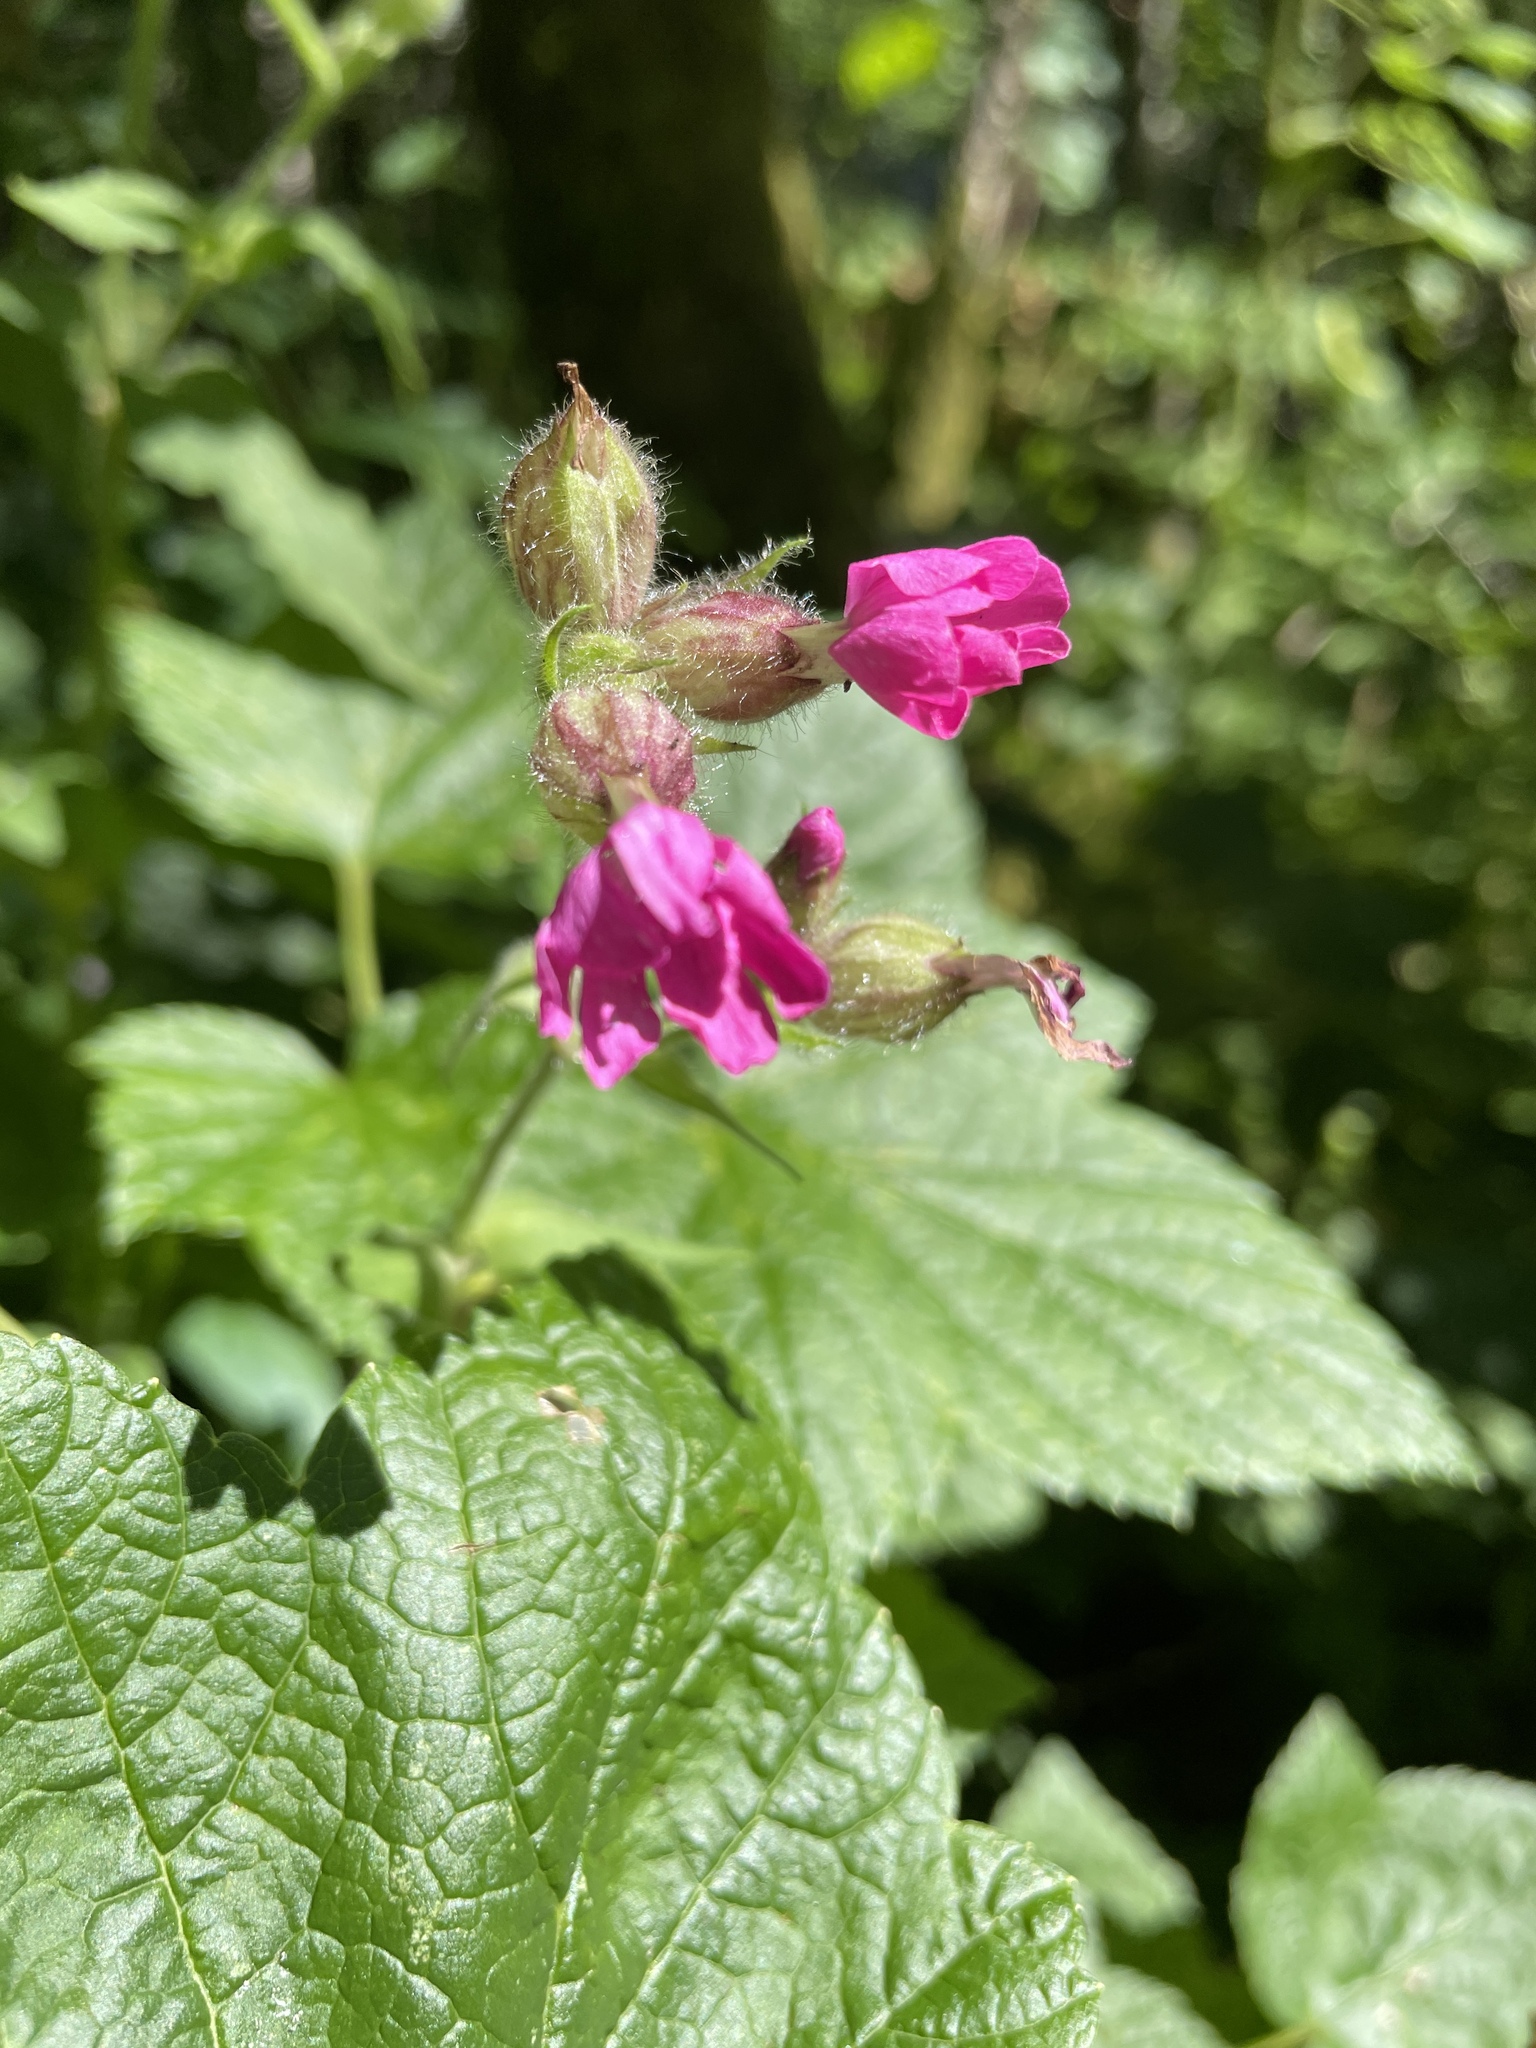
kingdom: Plantae
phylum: Tracheophyta
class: Magnoliopsida
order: Caryophyllales
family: Caryophyllaceae
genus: Silene
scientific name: Silene dioica
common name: Red campion
